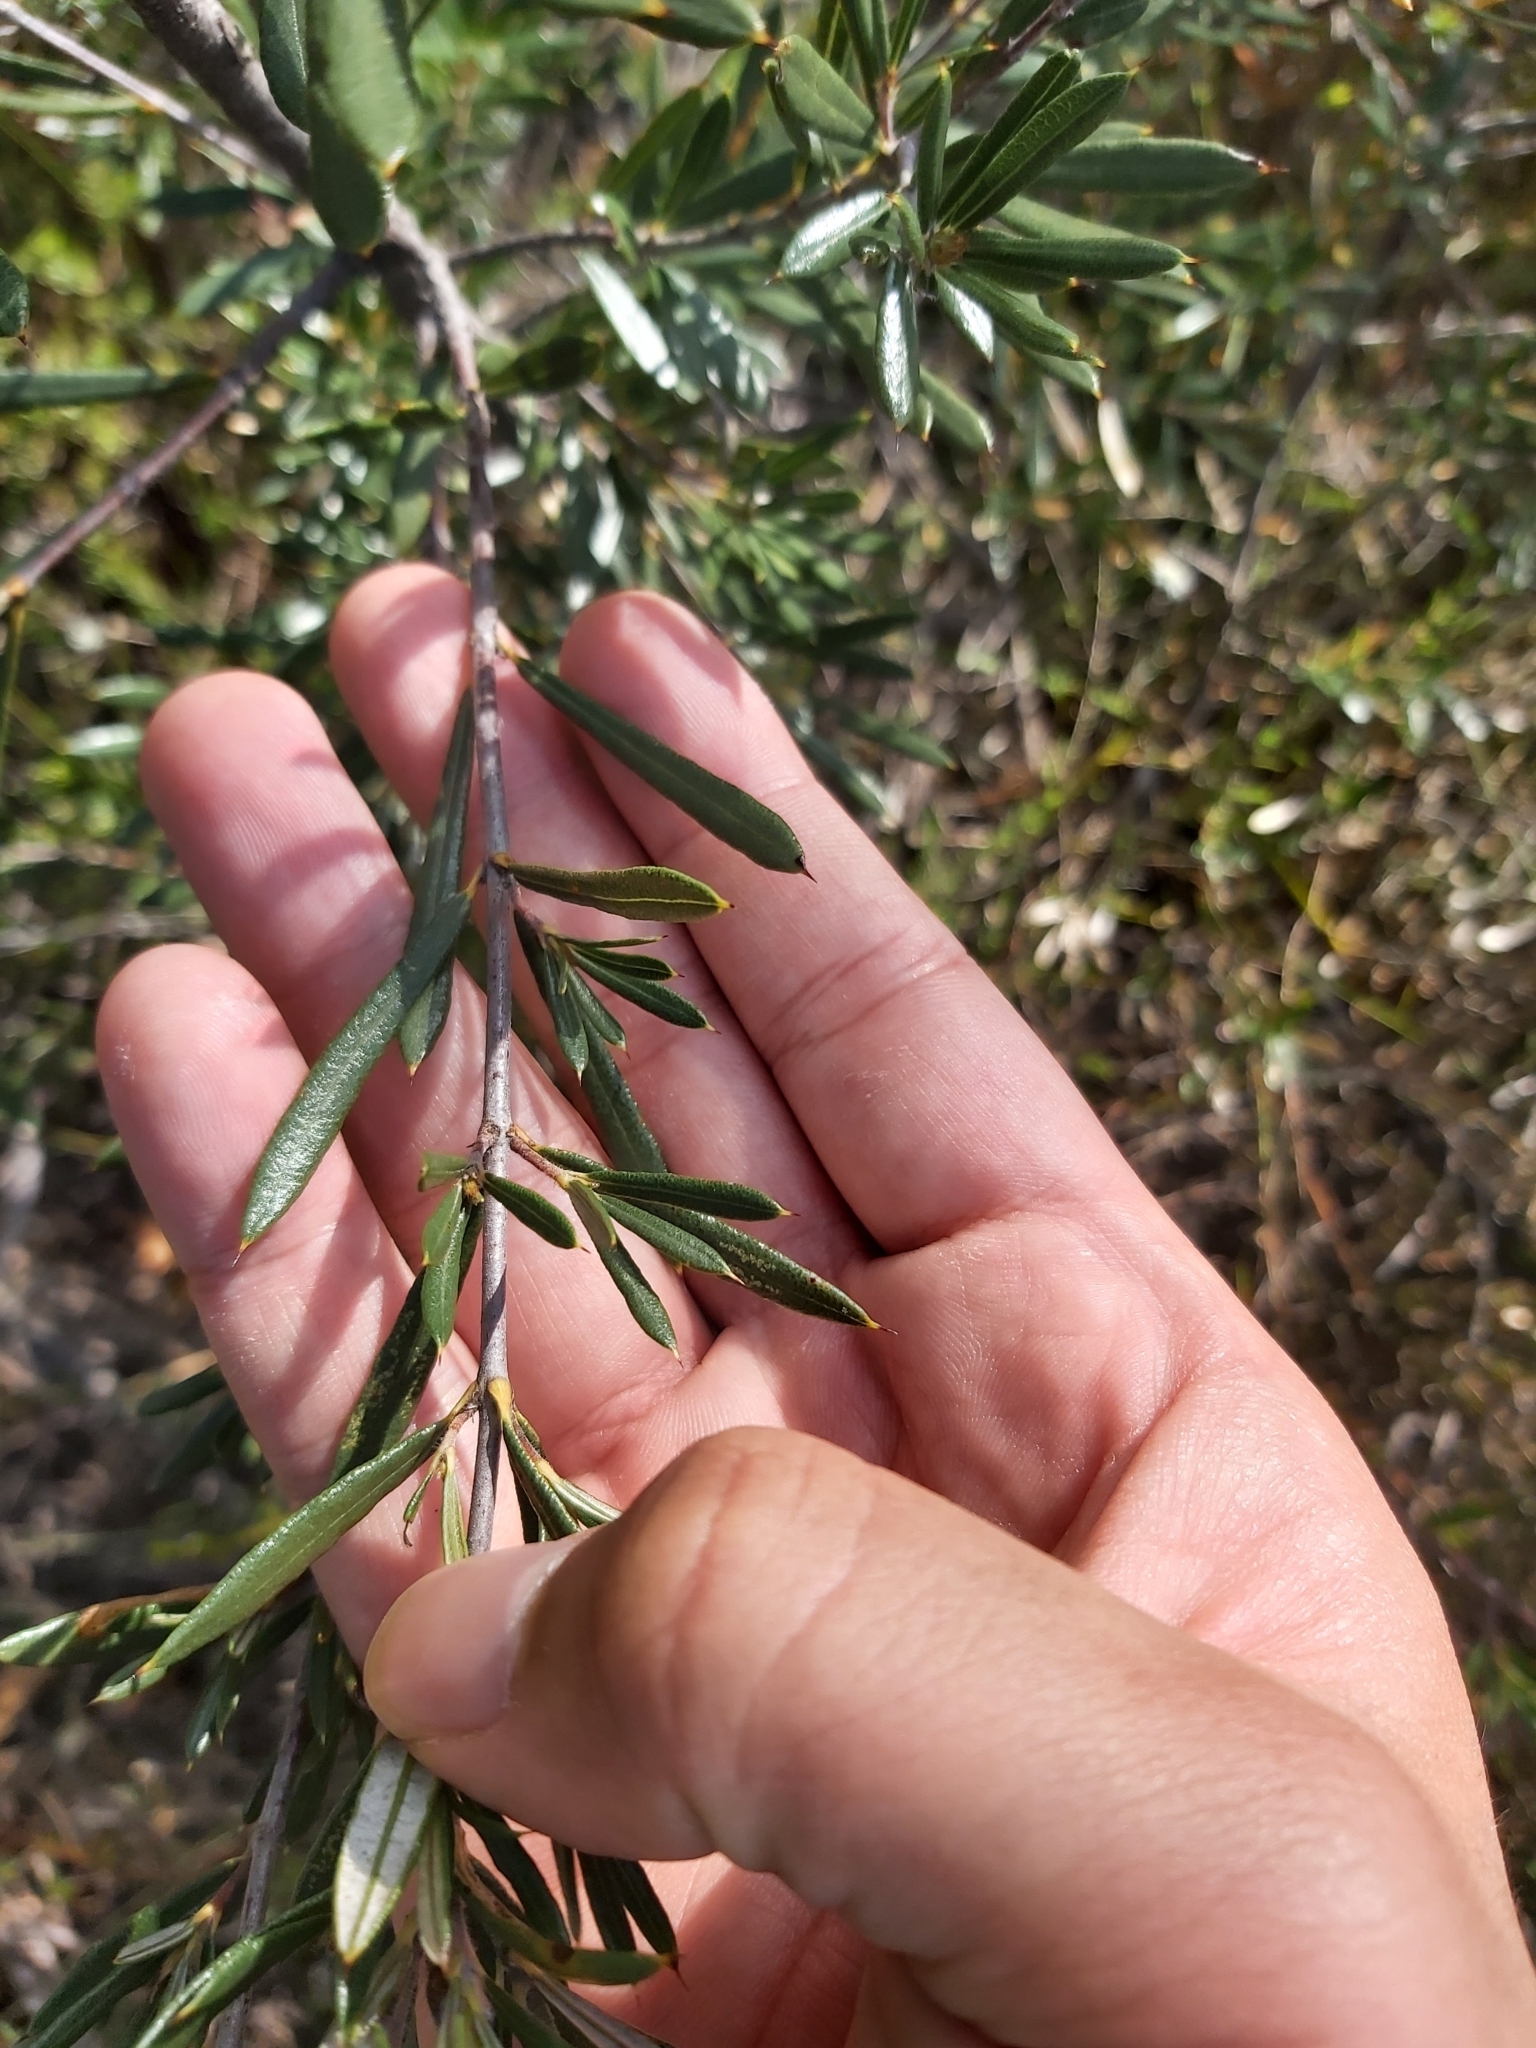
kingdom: Plantae
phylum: Tracheophyta
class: Magnoliopsida
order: Proteales
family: Proteaceae
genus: Lambertia
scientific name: Lambertia formosa
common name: Mountain-devil
